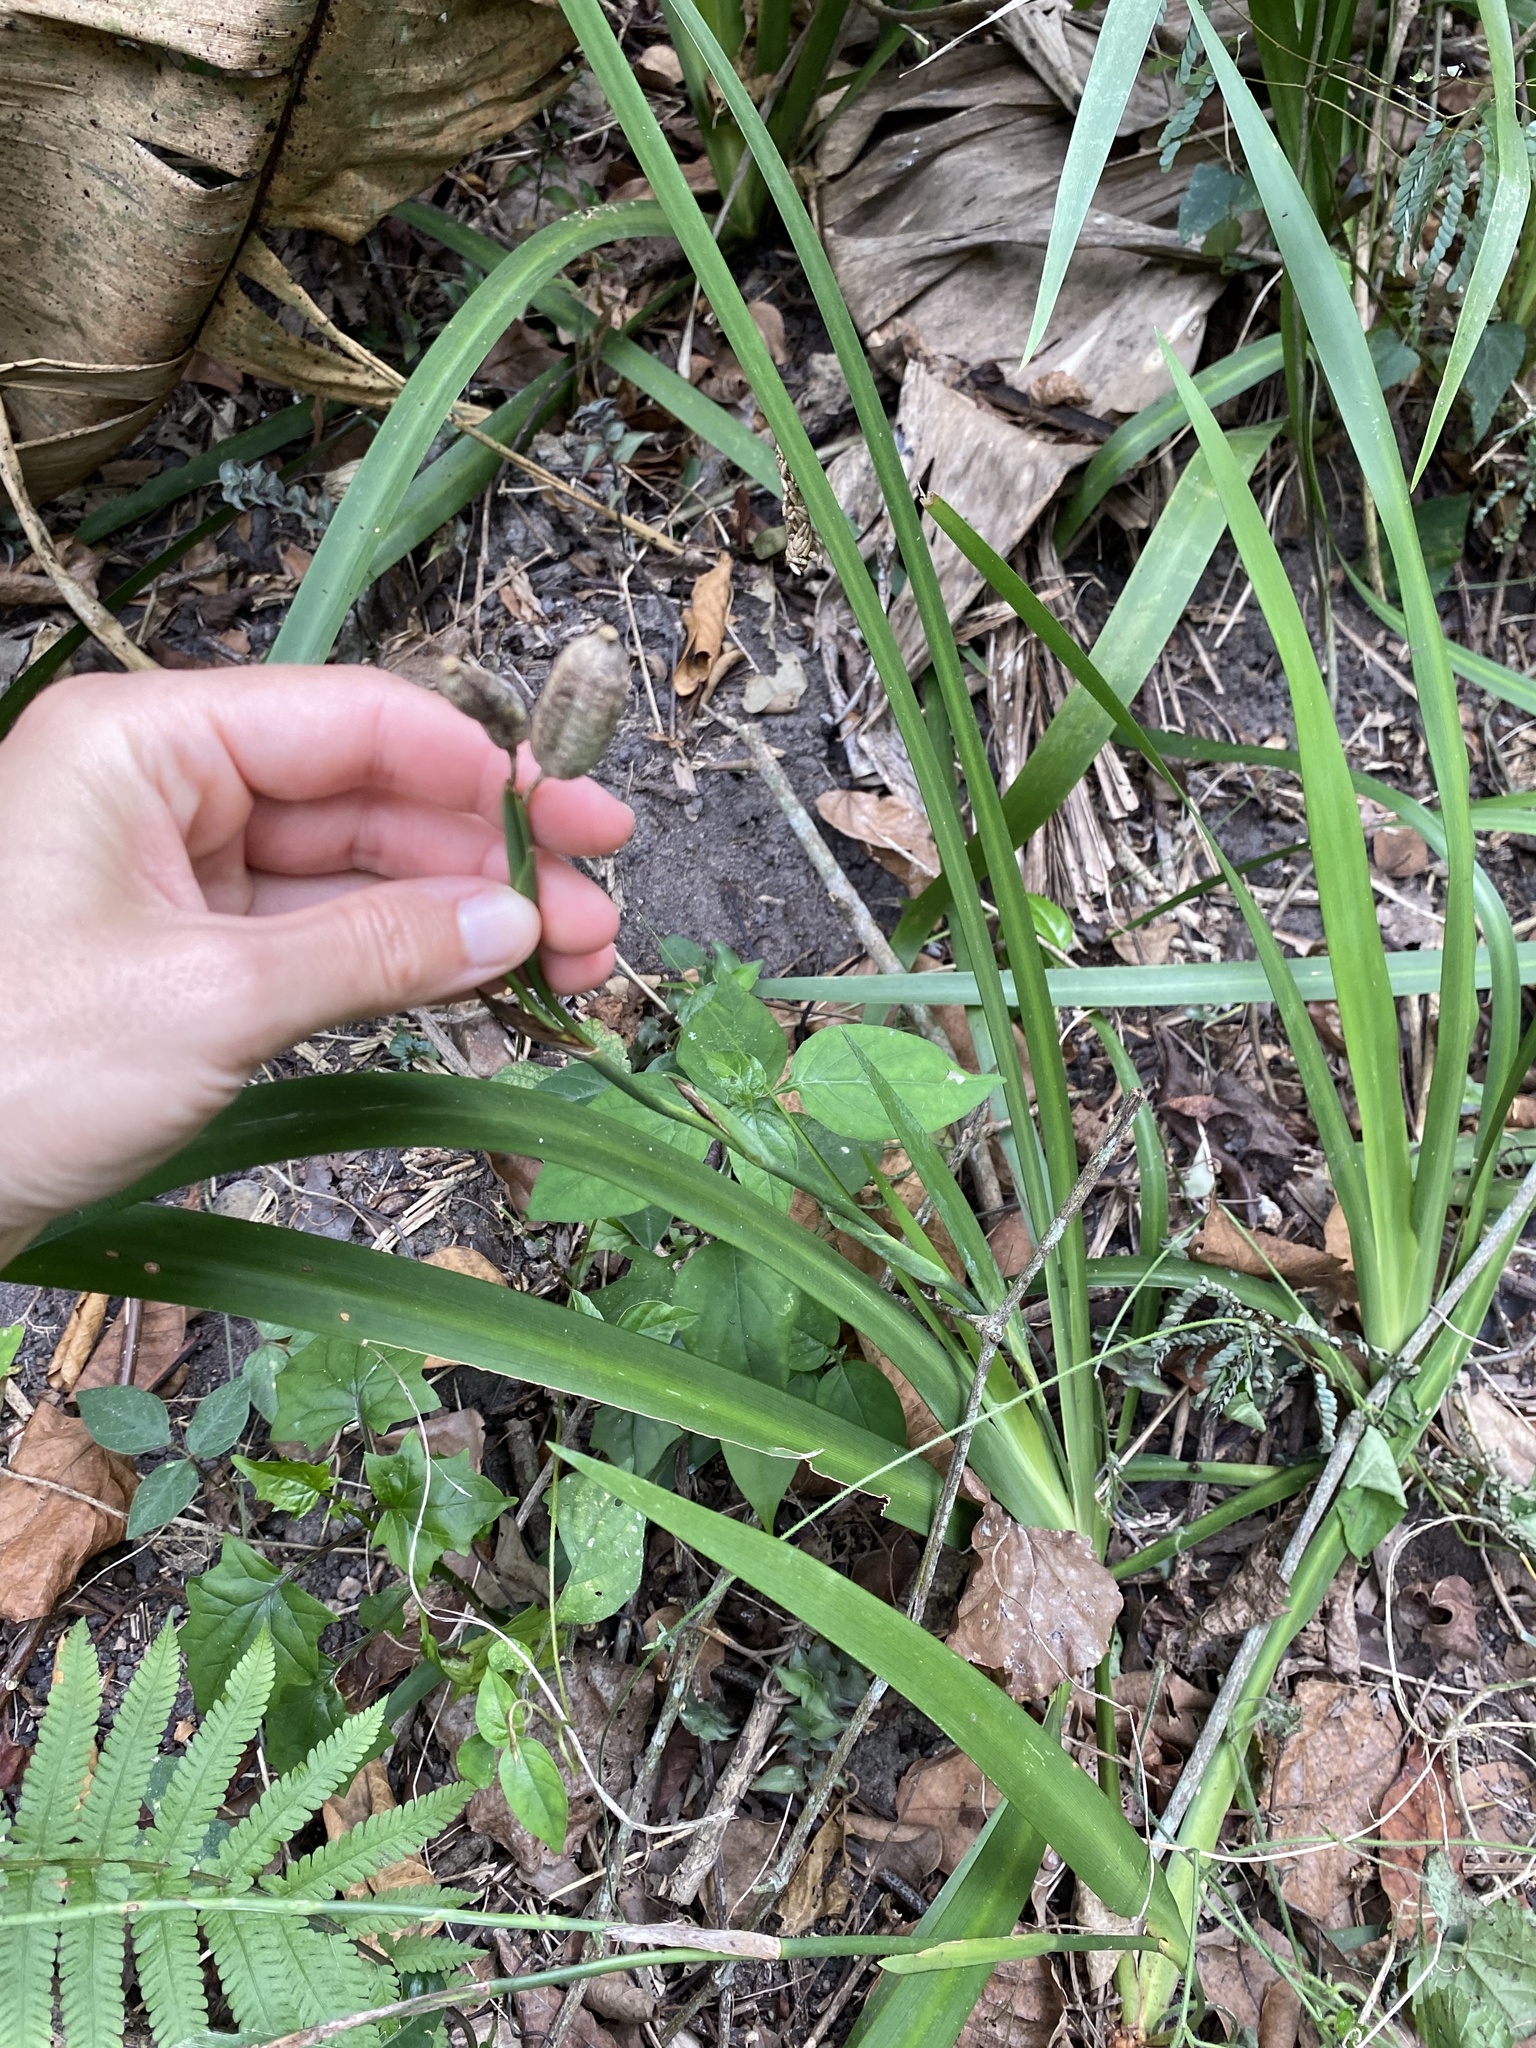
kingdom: Plantae
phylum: Tracheophyta
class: Liliopsida
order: Asparagales
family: Iridaceae
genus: Dietes
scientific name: Dietes iridioides
